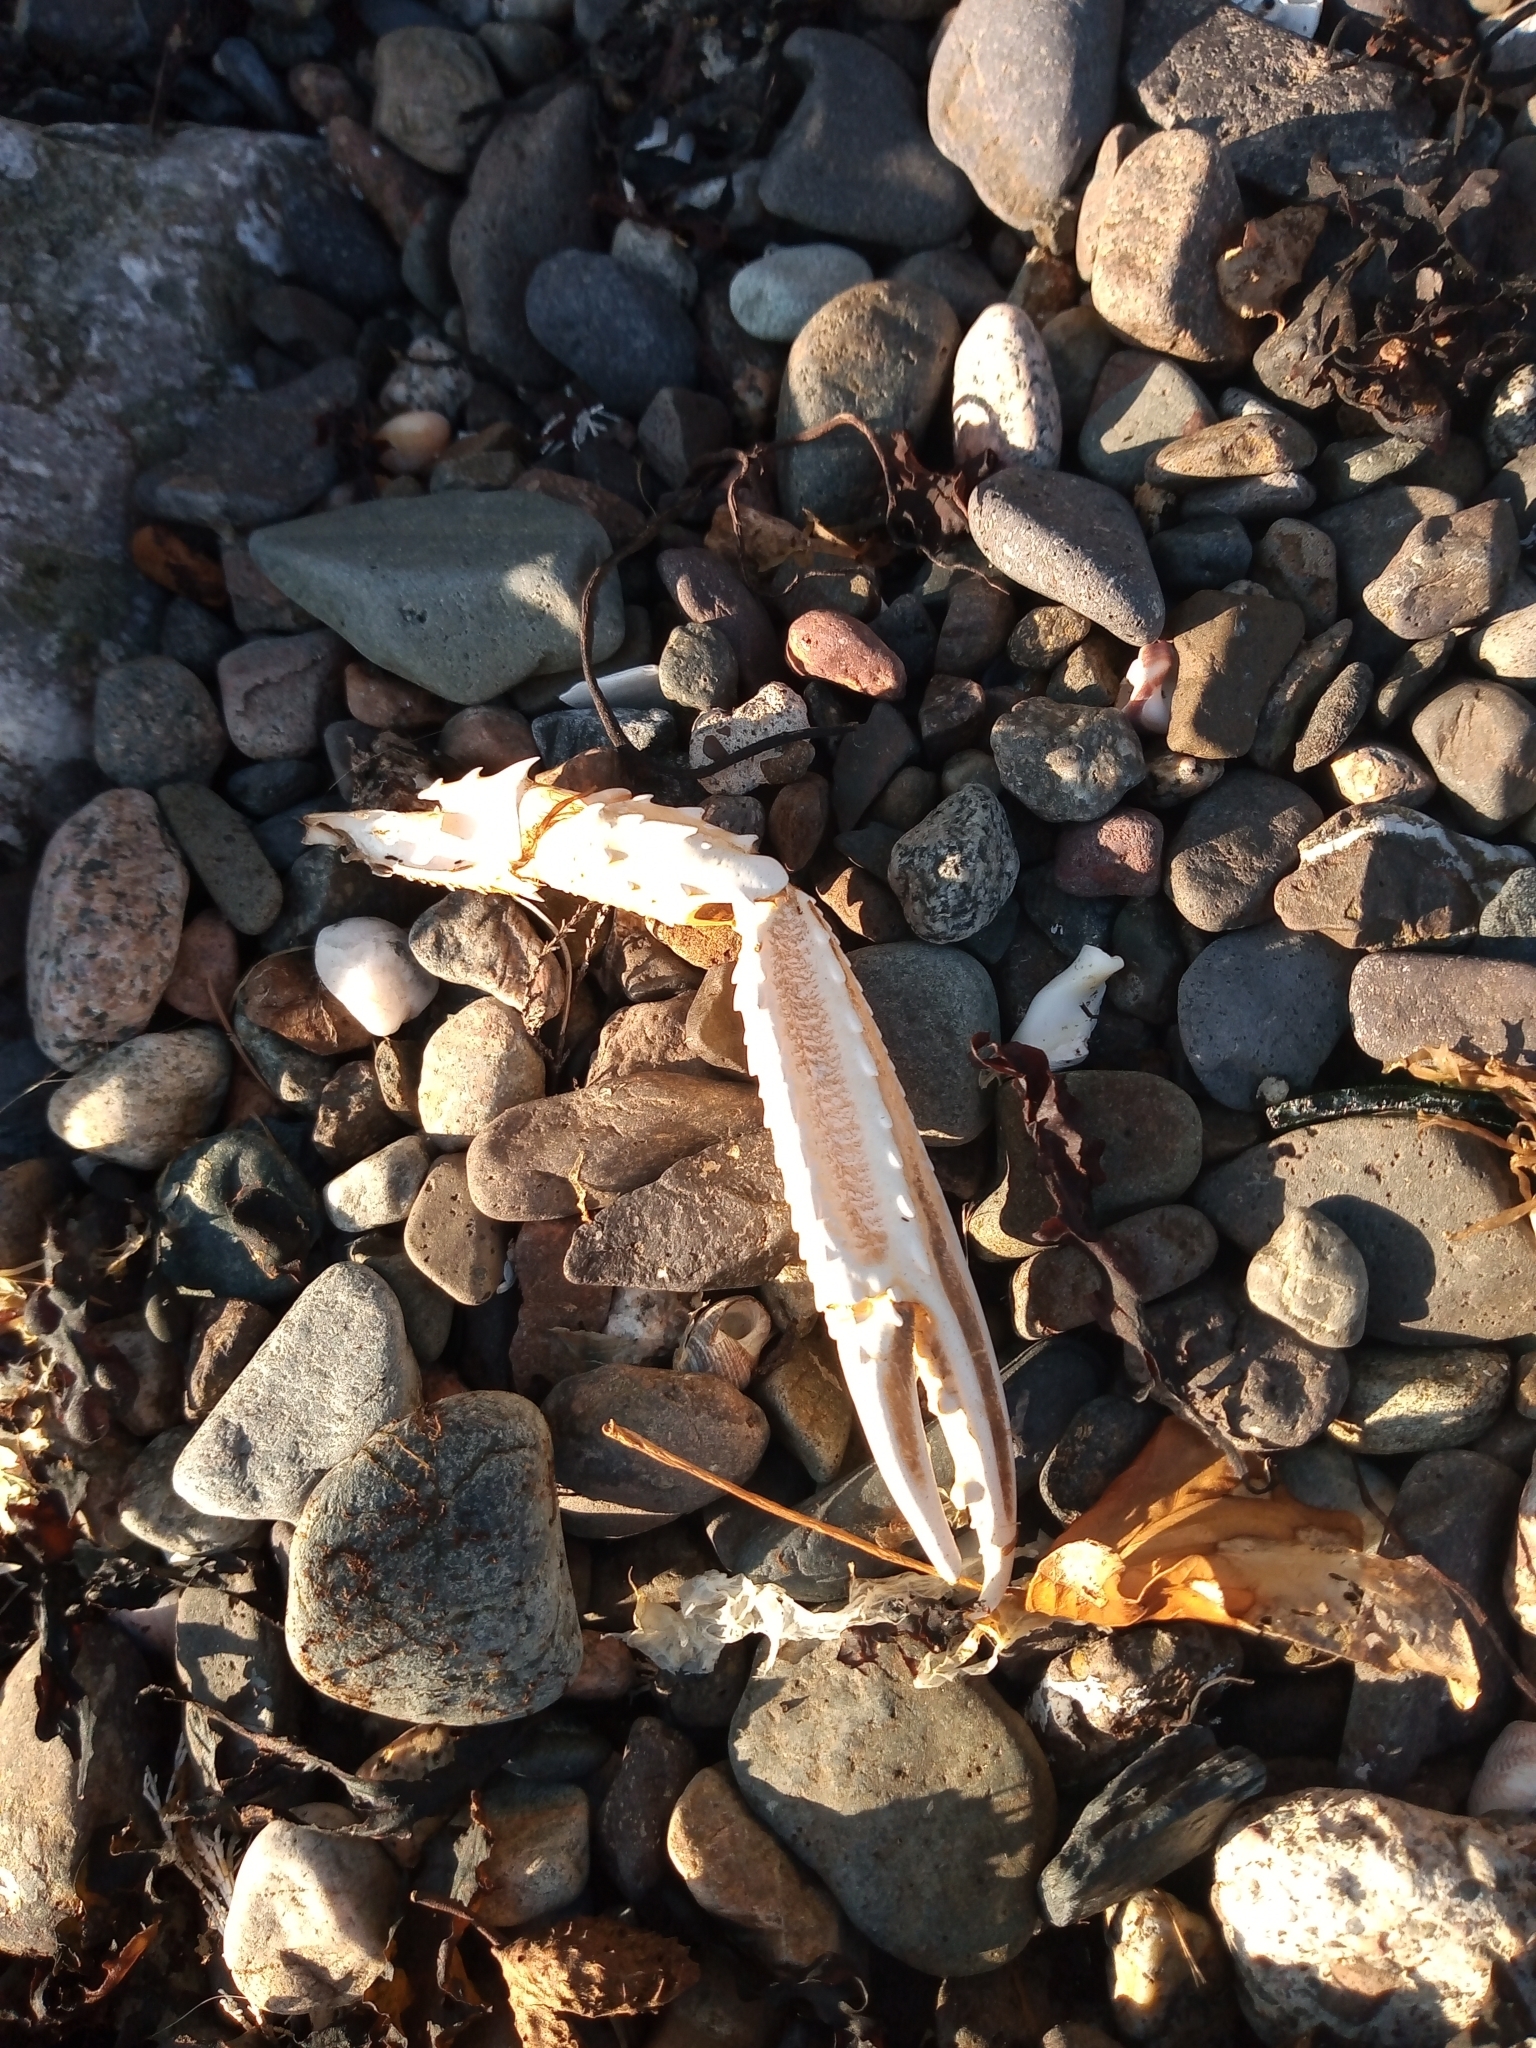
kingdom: Animalia
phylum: Arthropoda
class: Malacostraca
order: Decapoda
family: Nephropidae
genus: Nephrops
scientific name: Nephrops norvegicus
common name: Norway lobster
